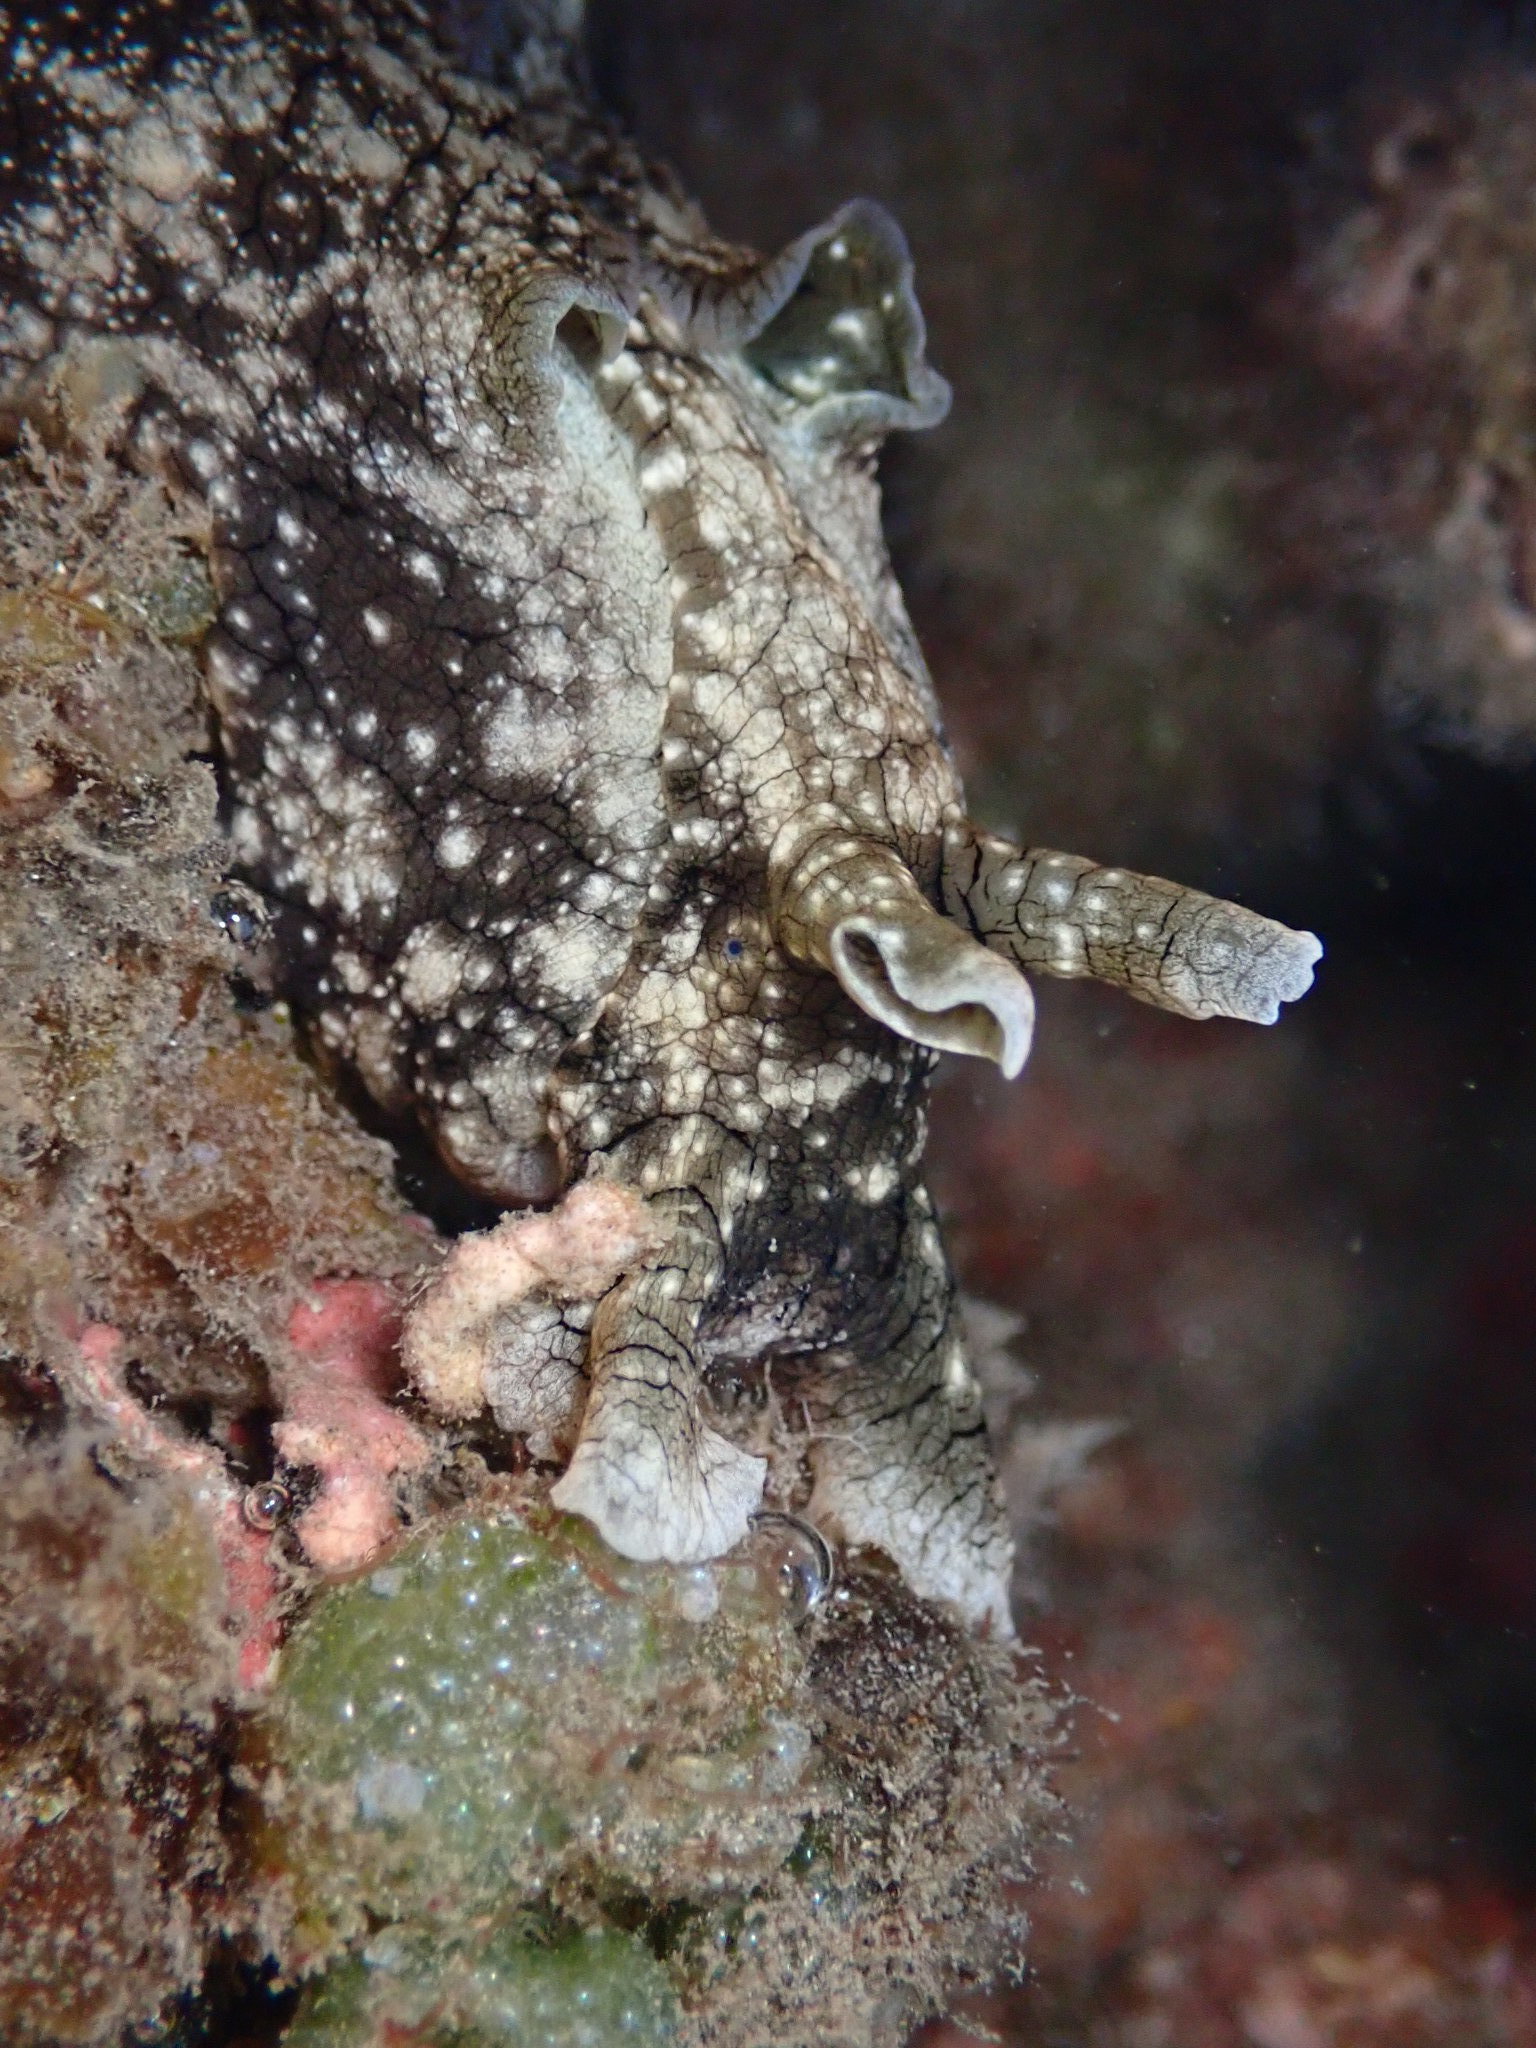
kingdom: Animalia
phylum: Mollusca
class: Gastropoda
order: Aplysiida
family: Aplysiidae
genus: Aplysia
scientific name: Aplysia argus
